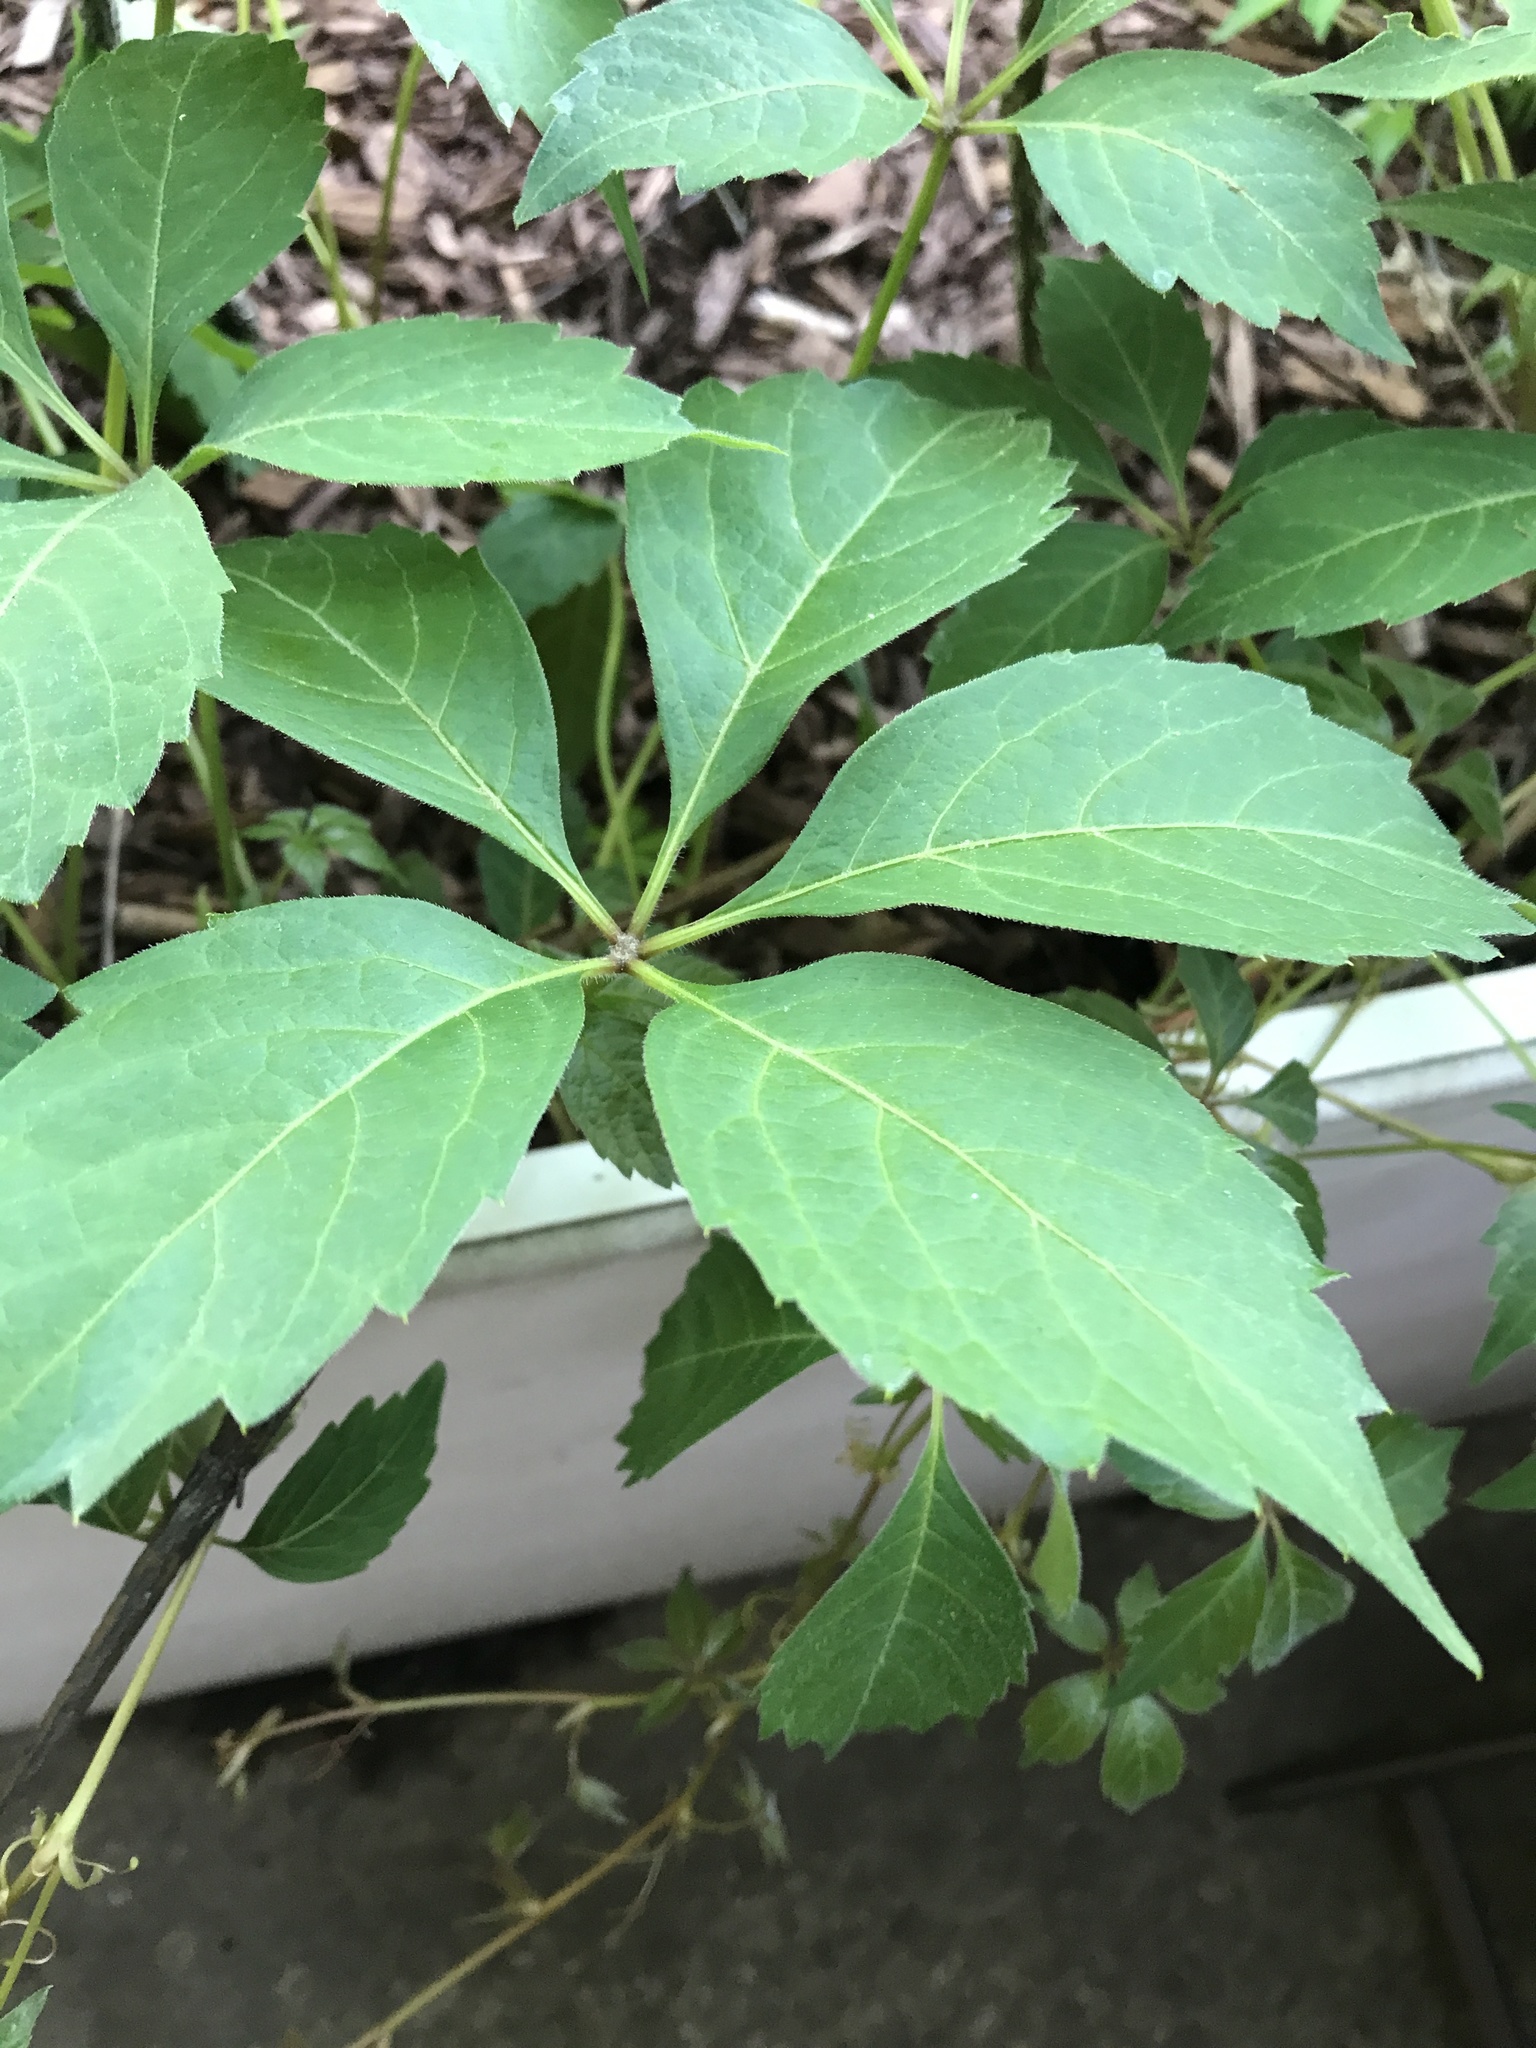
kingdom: Plantae
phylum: Tracheophyta
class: Magnoliopsida
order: Vitales
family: Vitaceae
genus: Parthenocissus
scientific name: Parthenocissus quinquefolia
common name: Virginia-creeper
